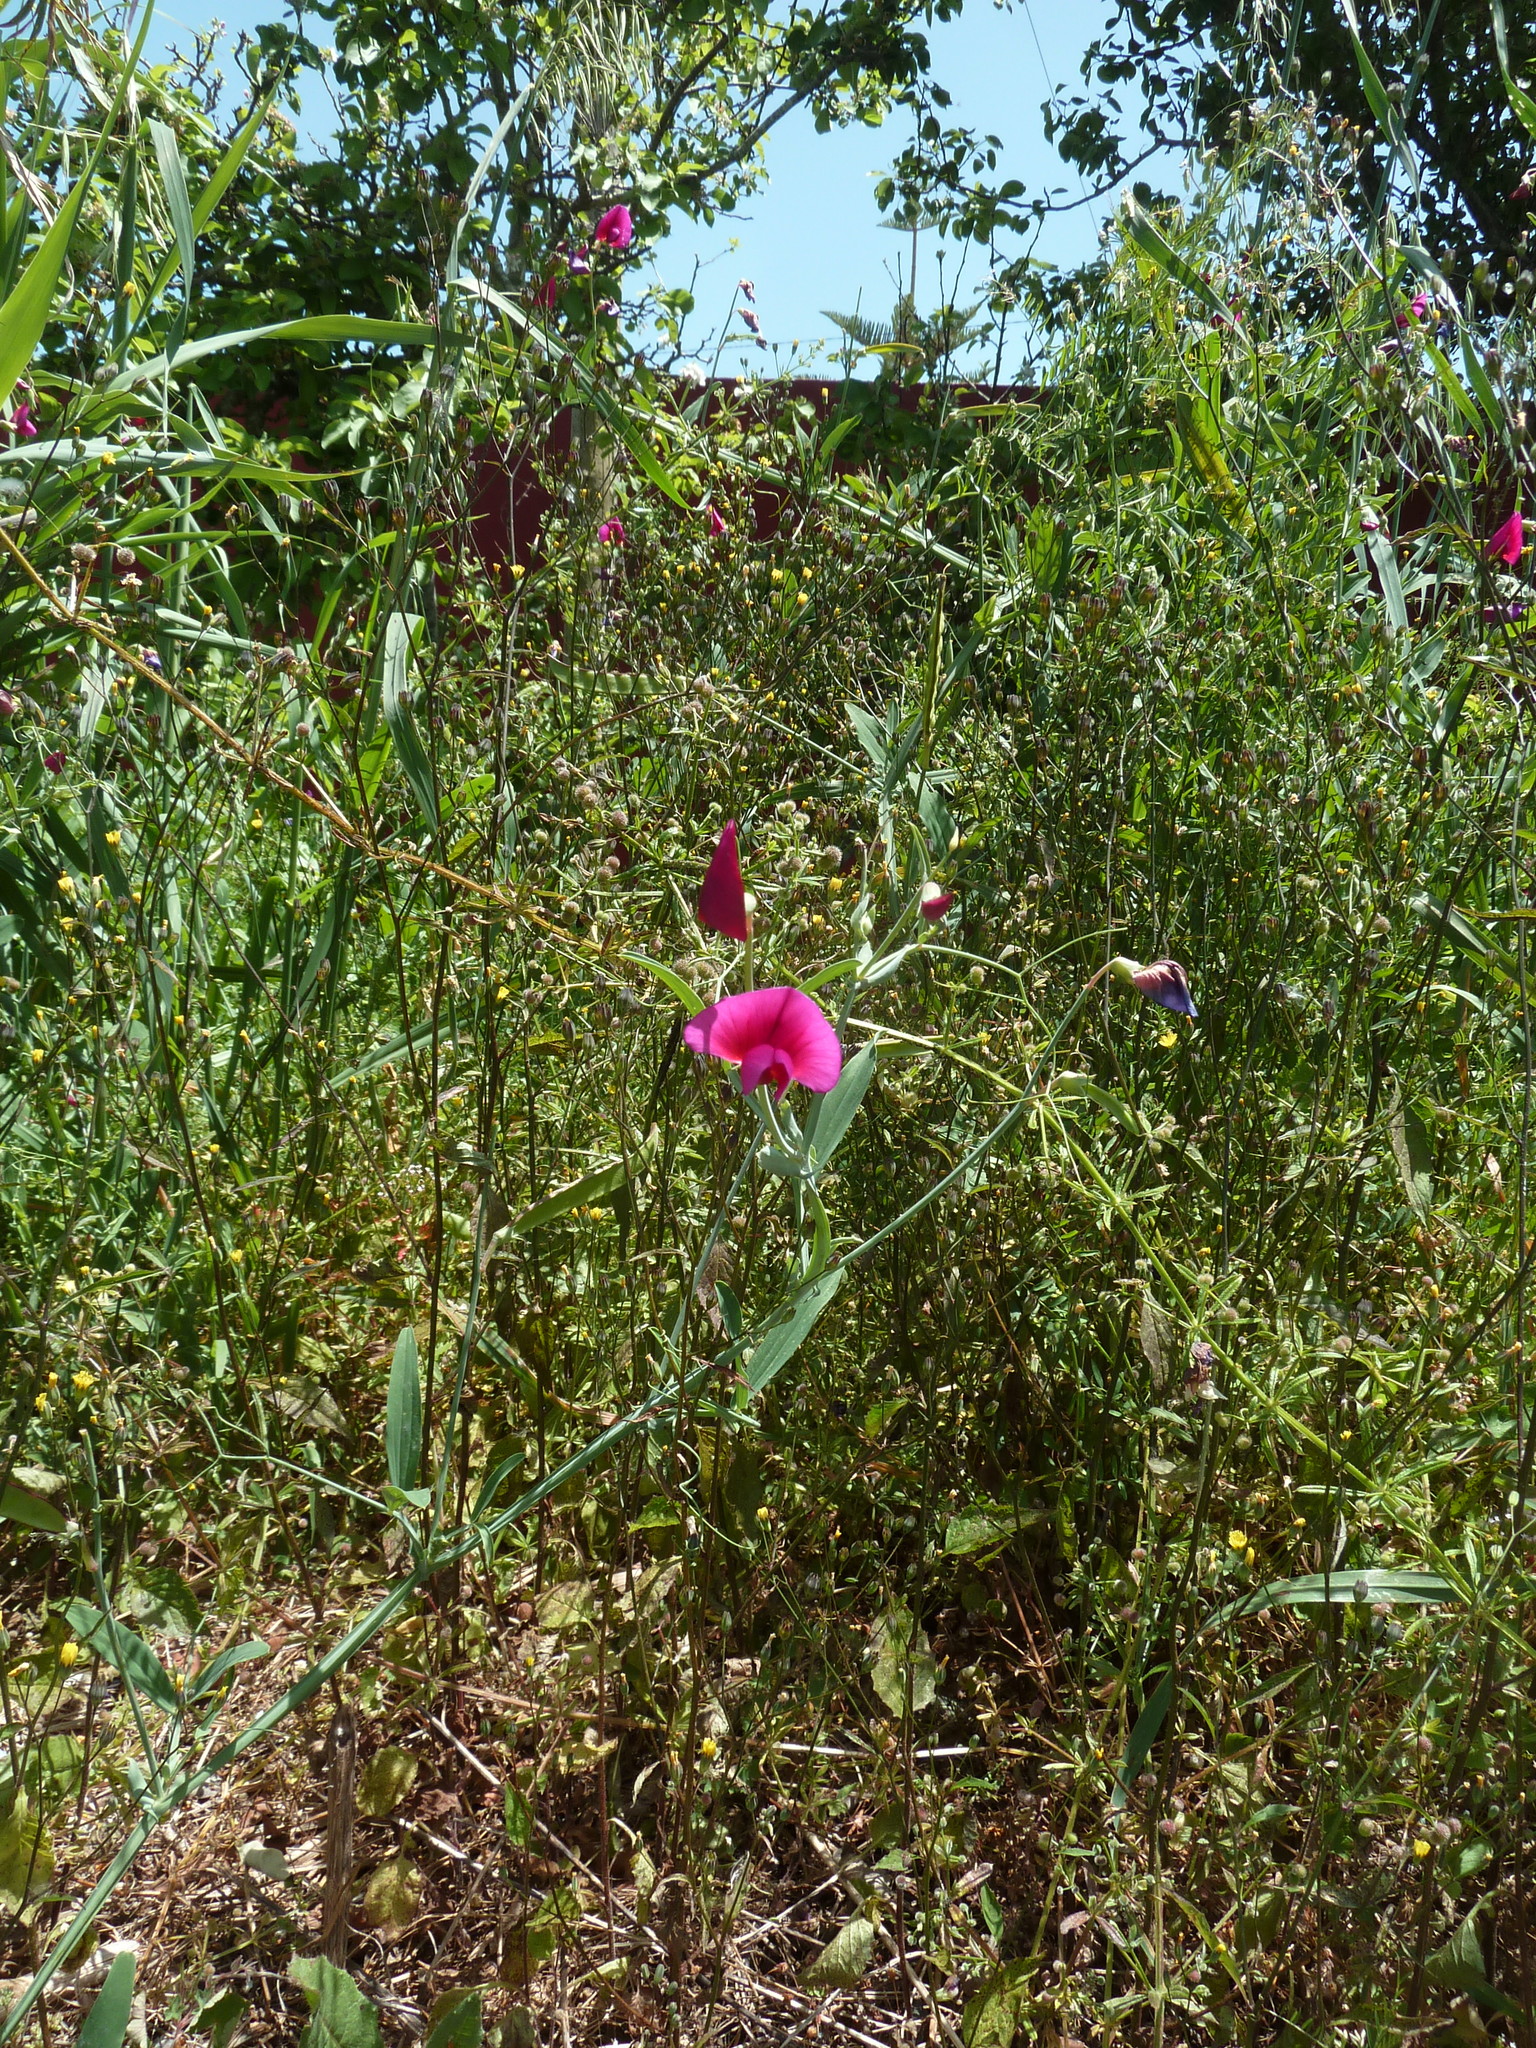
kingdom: Plantae
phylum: Tracheophyta
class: Magnoliopsida
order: Fabales
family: Fabaceae
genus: Lathyrus
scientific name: Lathyrus tingitanus
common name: Tangier pea
